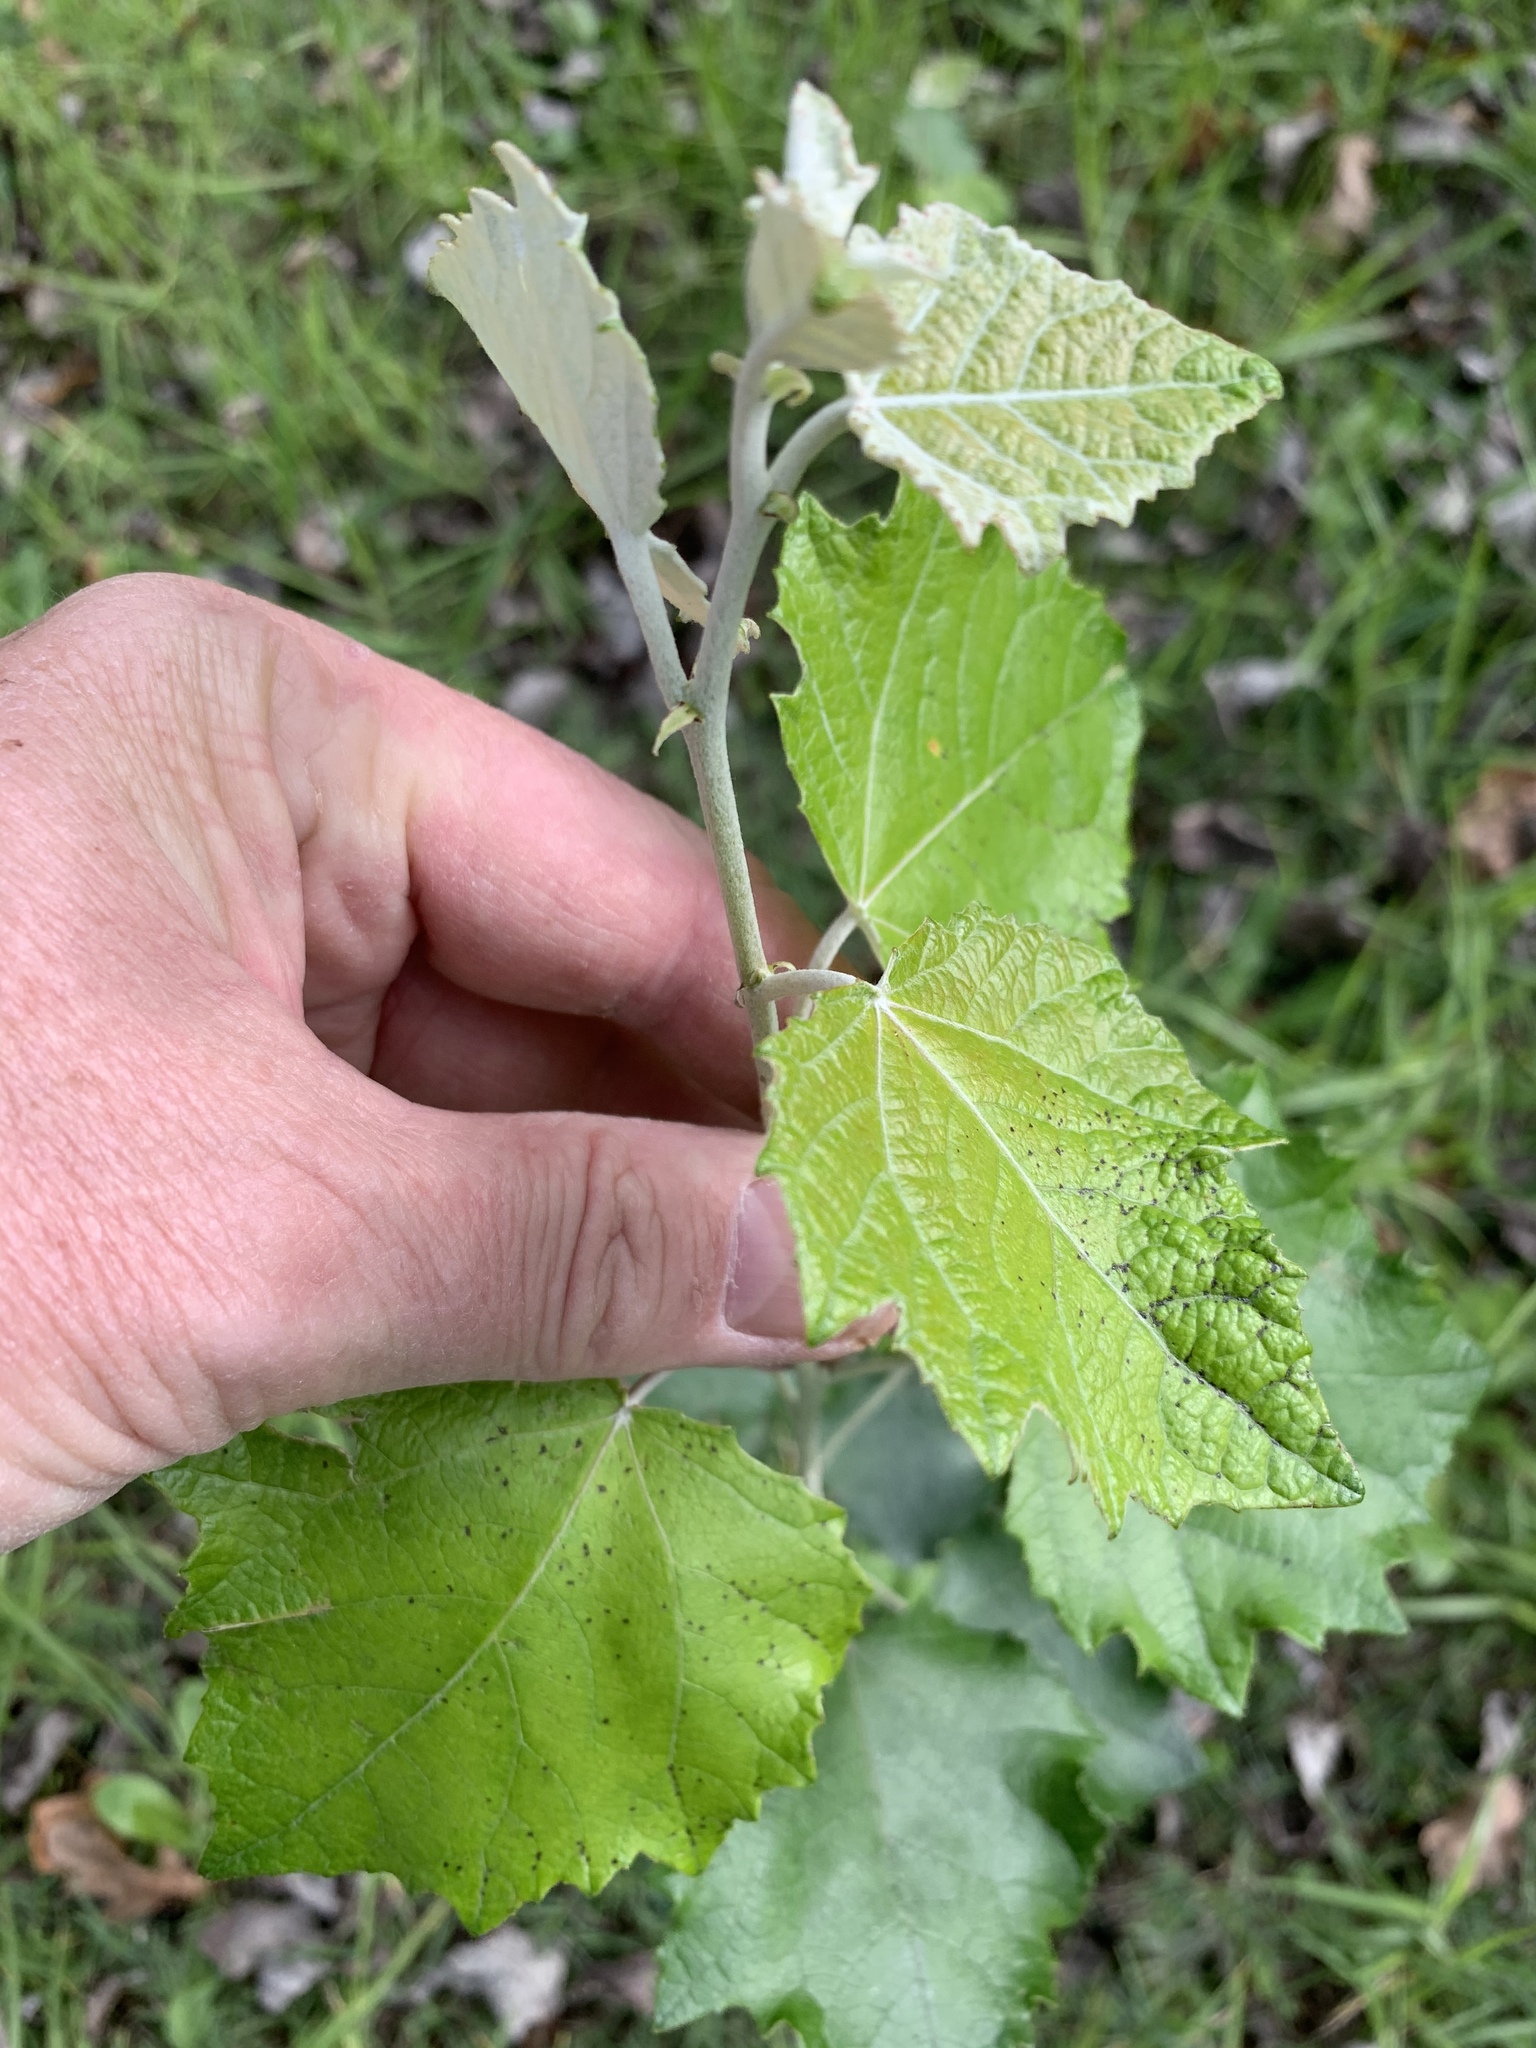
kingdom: Plantae
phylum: Tracheophyta
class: Magnoliopsida
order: Malpighiales
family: Salicaceae
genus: Populus
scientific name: Populus canescens
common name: Gray poplar
